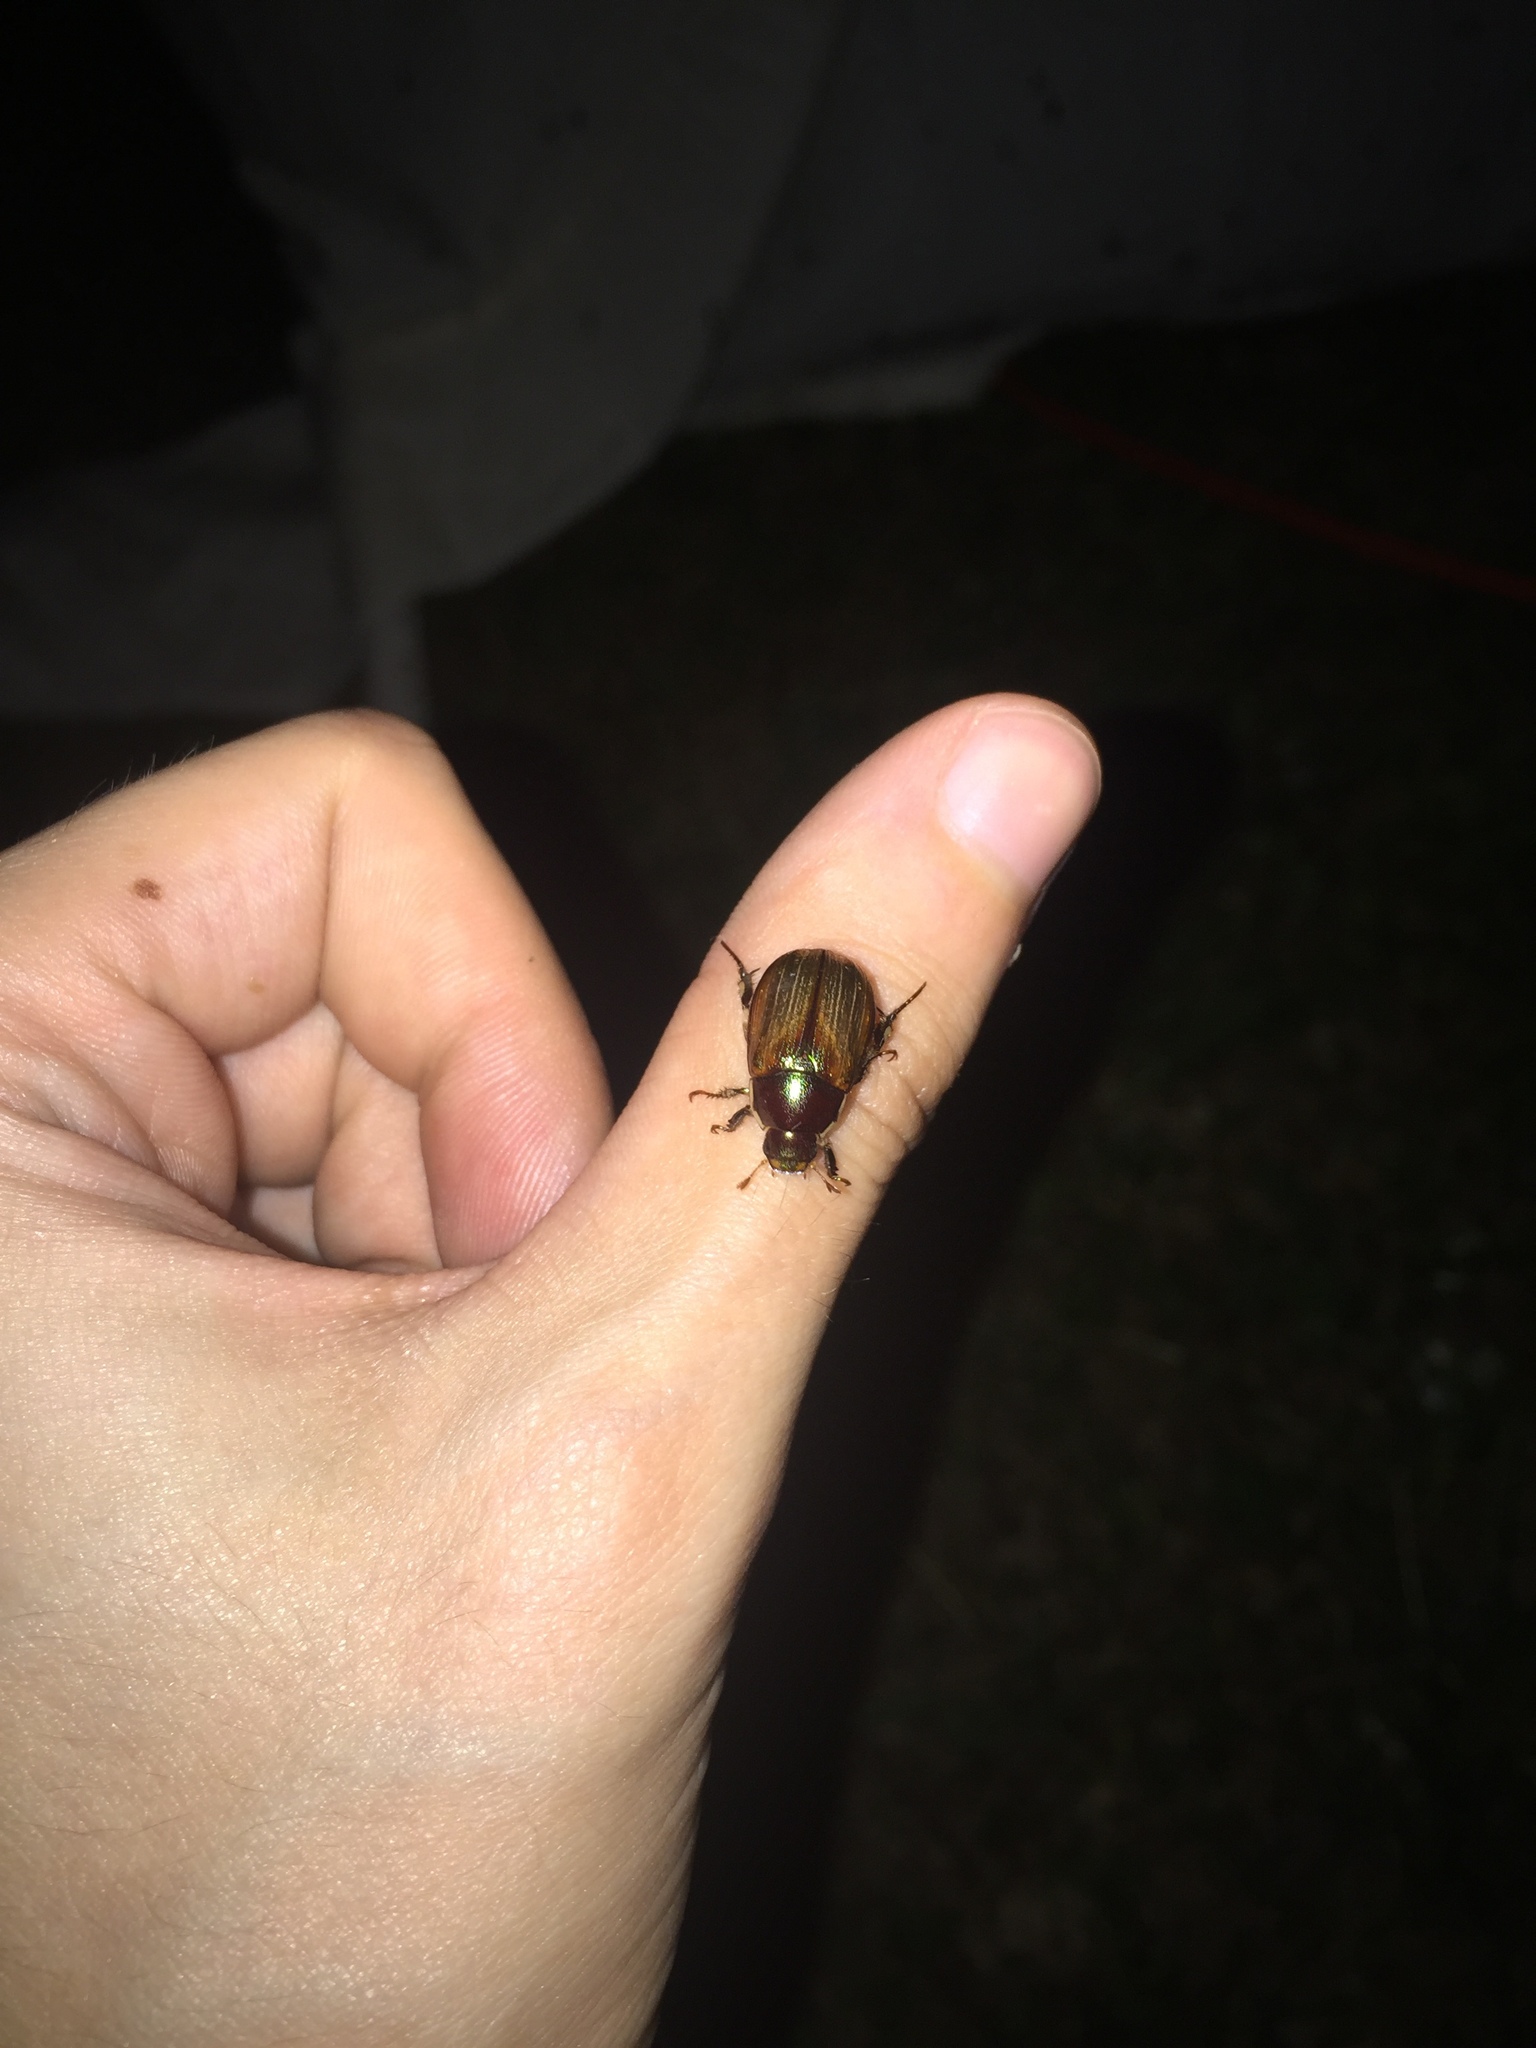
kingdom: Animalia
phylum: Arthropoda
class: Insecta
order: Coleoptera
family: Scarabaeidae
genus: Callistethus
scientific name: Callistethus marginatus
